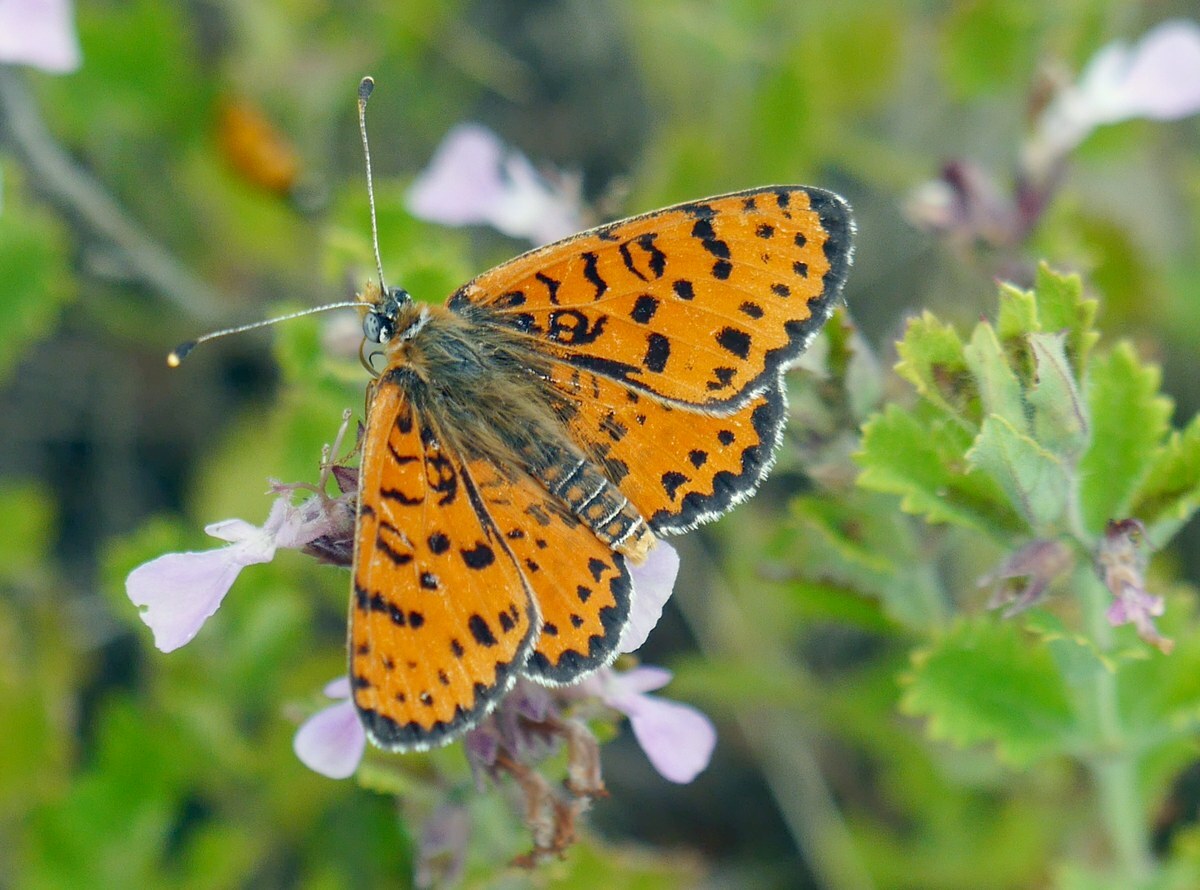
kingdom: Animalia
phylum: Arthropoda
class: Insecta
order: Lepidoptera
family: Nymphalidae
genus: Melitaea
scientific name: Melitaea didyma
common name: Spotted fritillary
